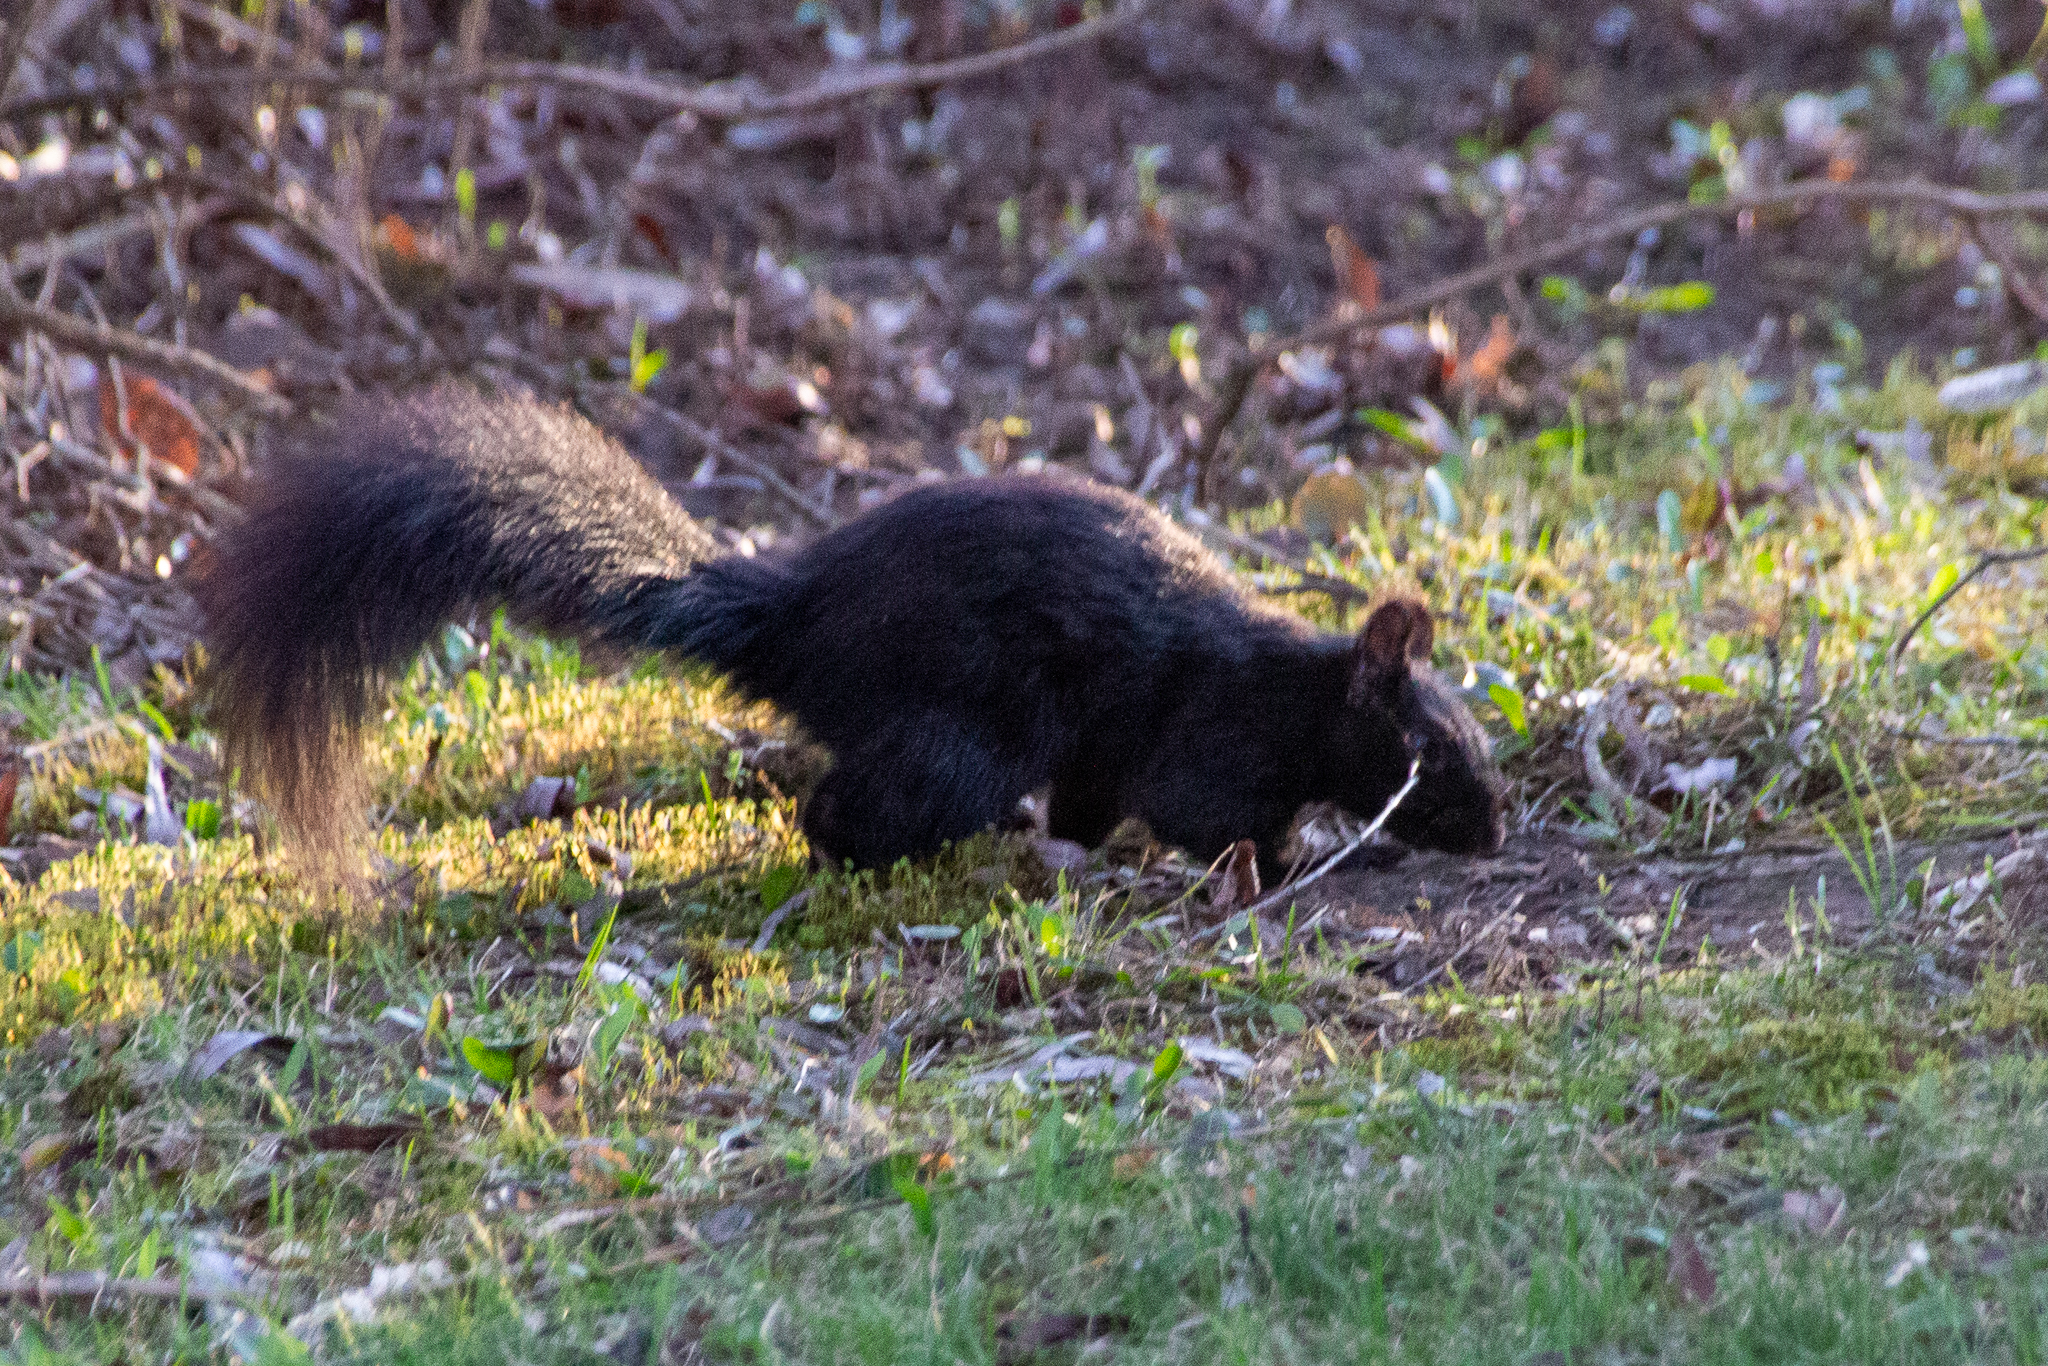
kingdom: Animalia
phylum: Chordata
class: Mammalia
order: Rodentia
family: Sciuridae
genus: Sciurus
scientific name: Sciurus carolinensis
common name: Eastern gray squirrel
